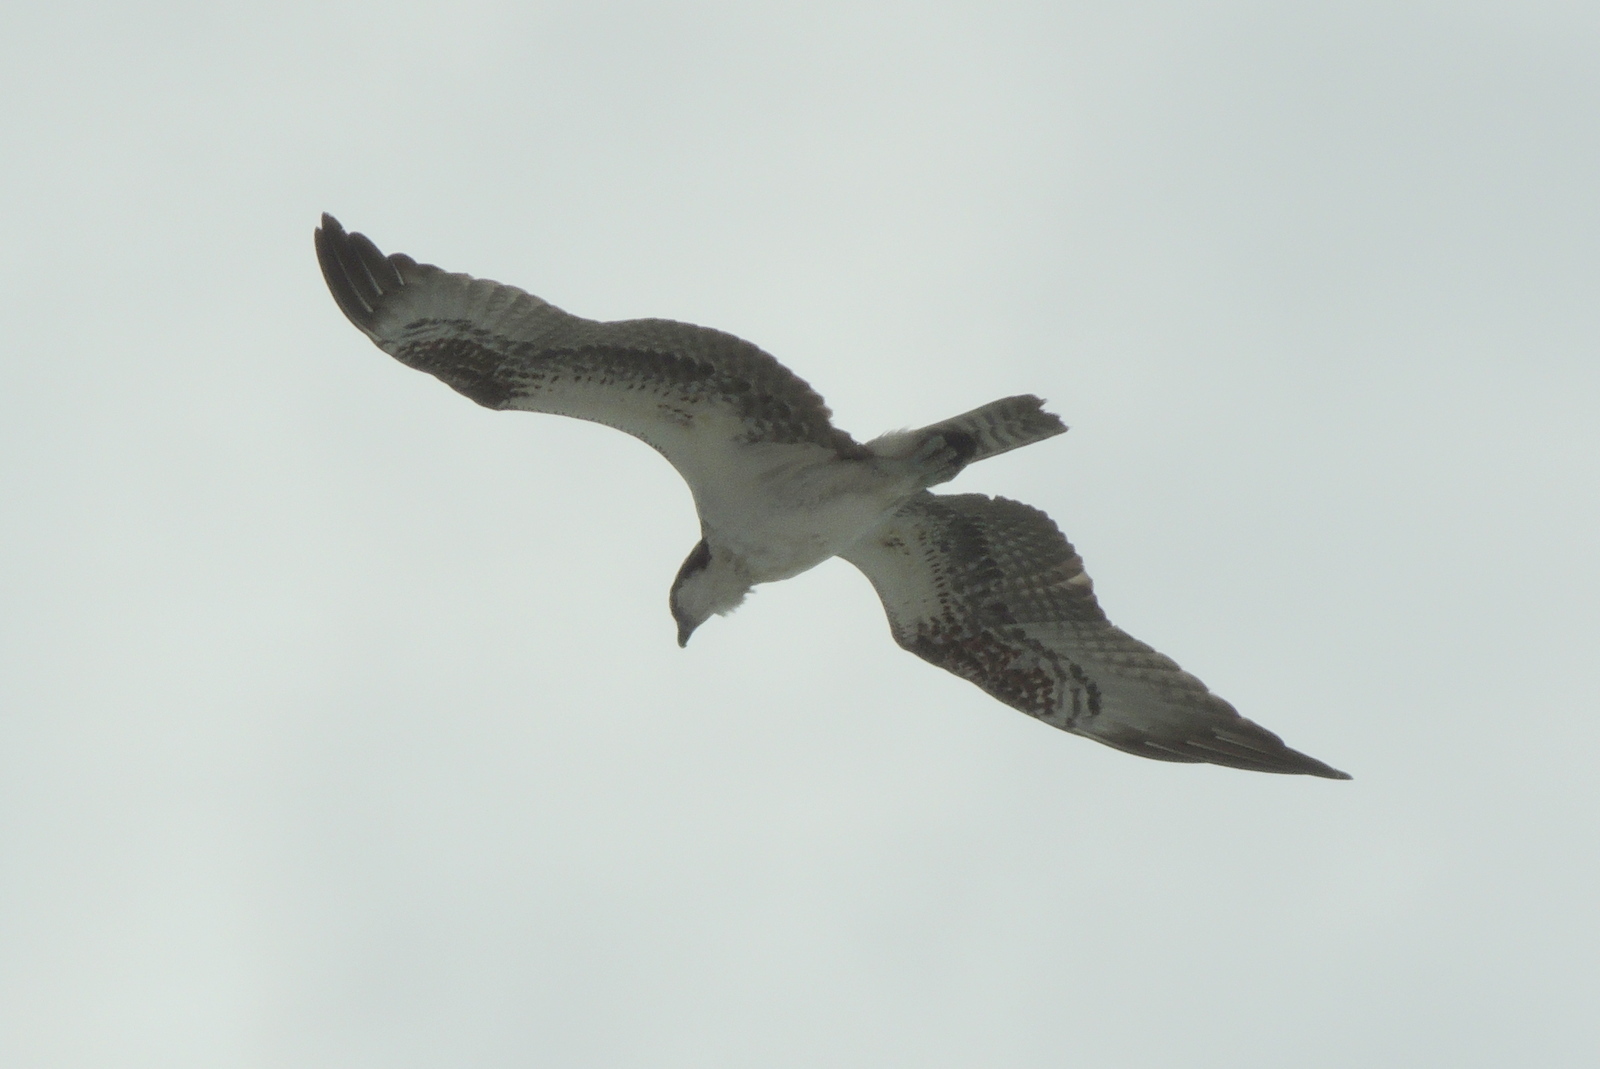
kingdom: Animalia
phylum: Chordata
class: Aves
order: Accipitriformes
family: Pandionidae
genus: Pandion
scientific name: Pandion haliaetus
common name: Osprey
